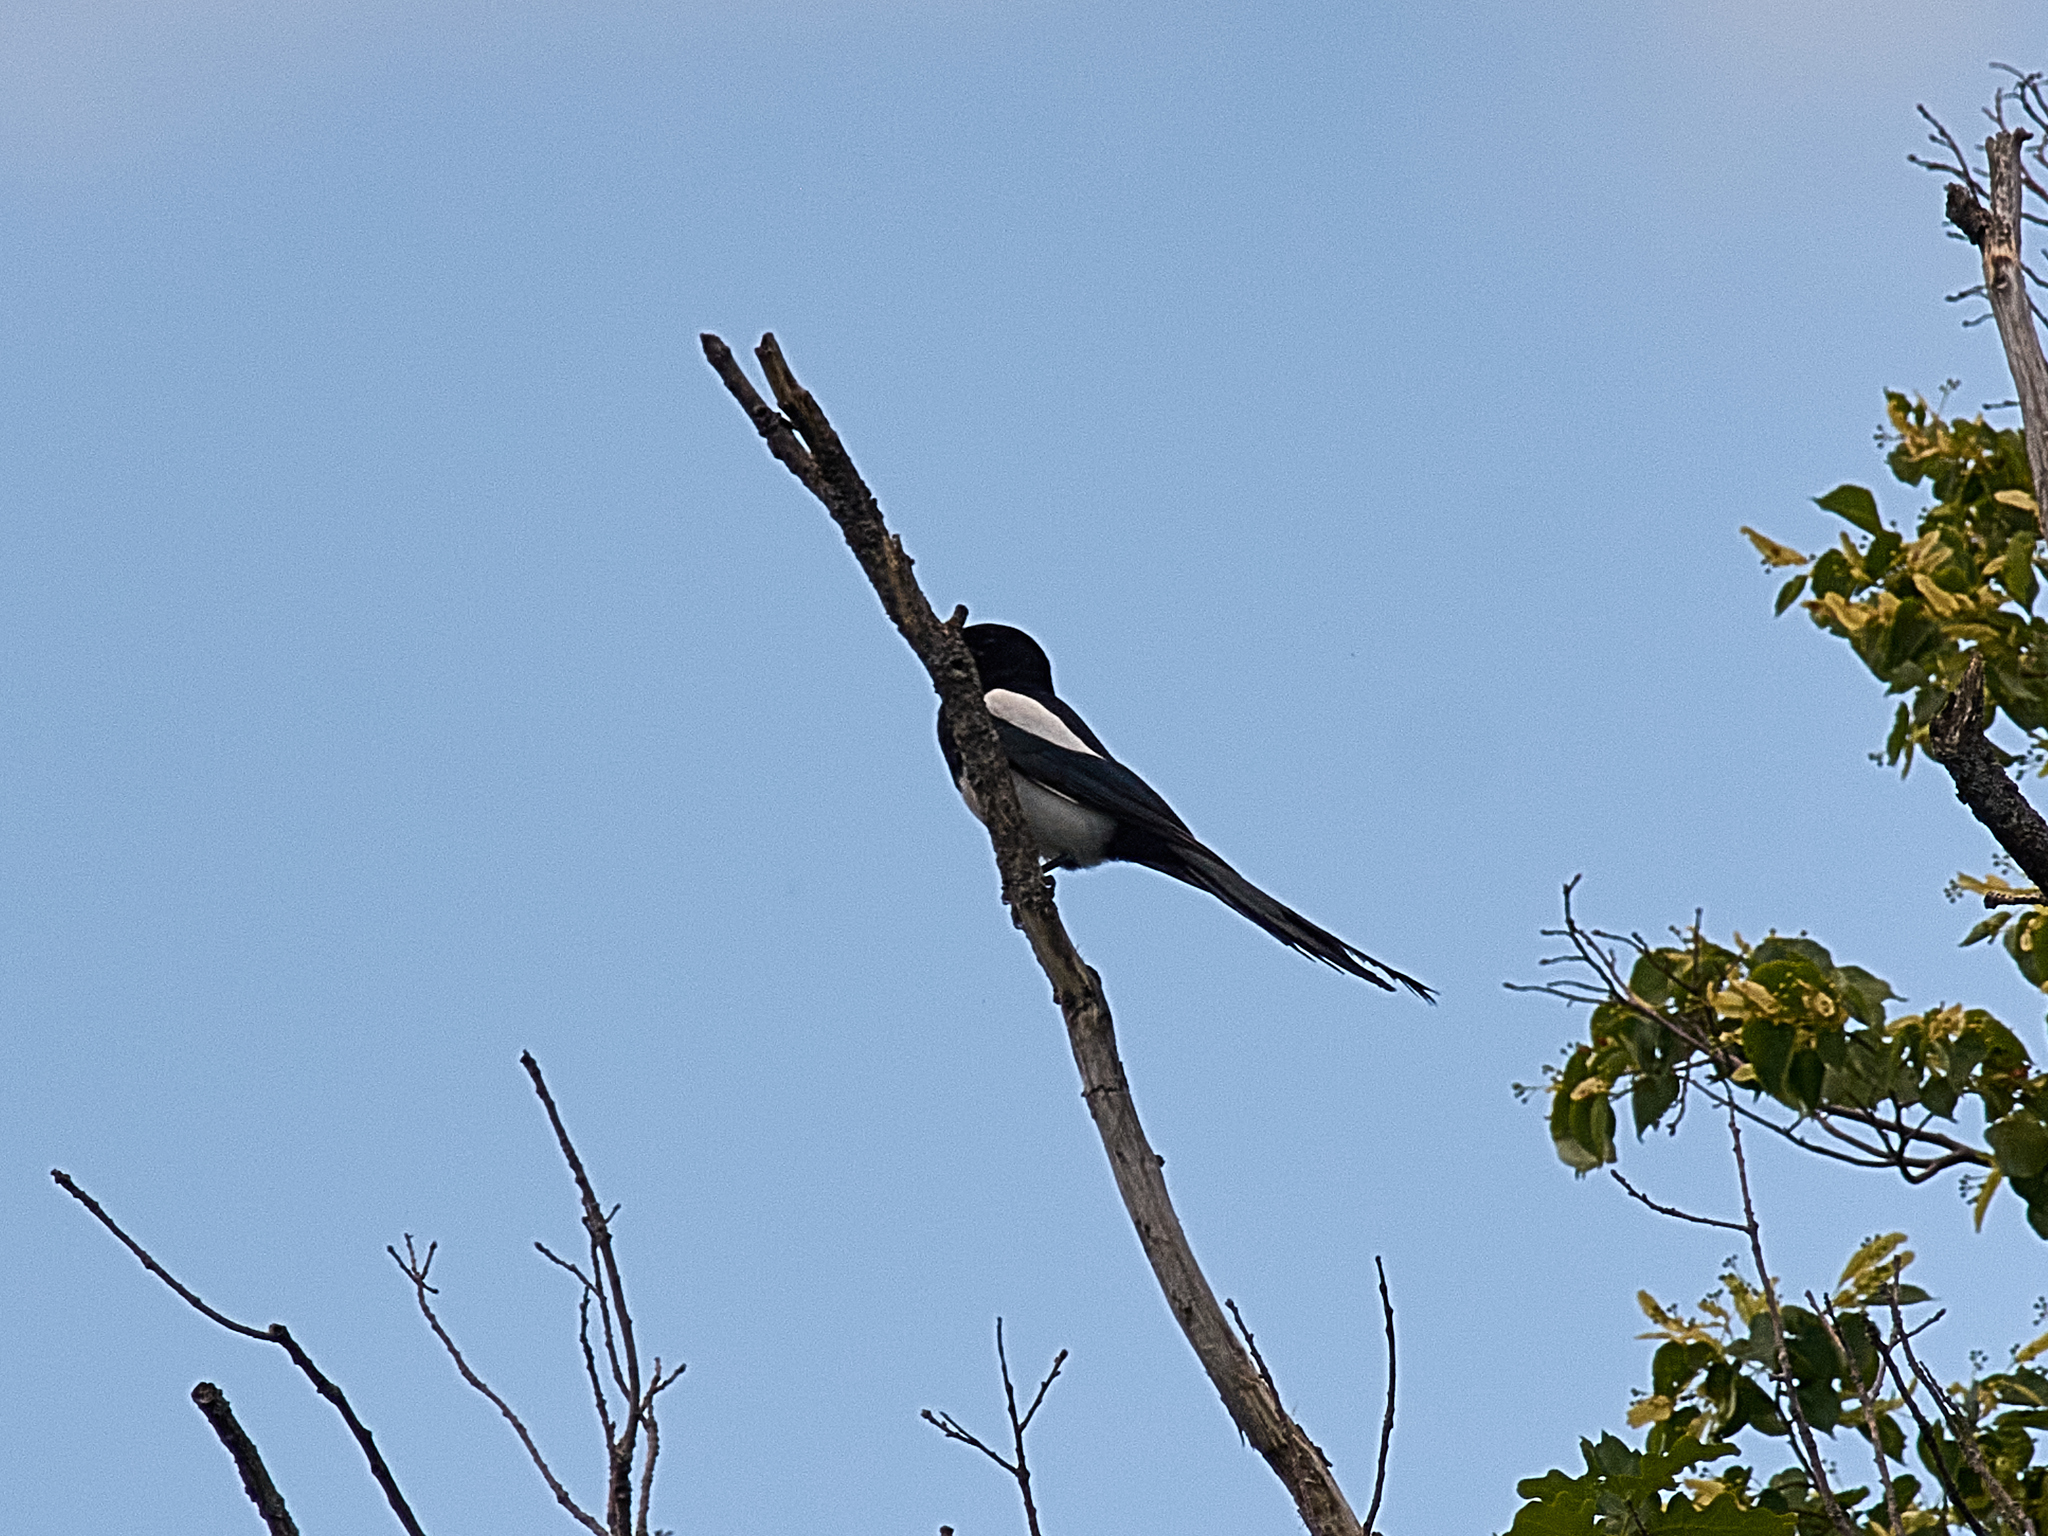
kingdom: Animalia
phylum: Chordata
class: Aves
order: Passeriformes
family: Corvidae
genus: Pica
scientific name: Pica pica
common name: Eurasian magpie
